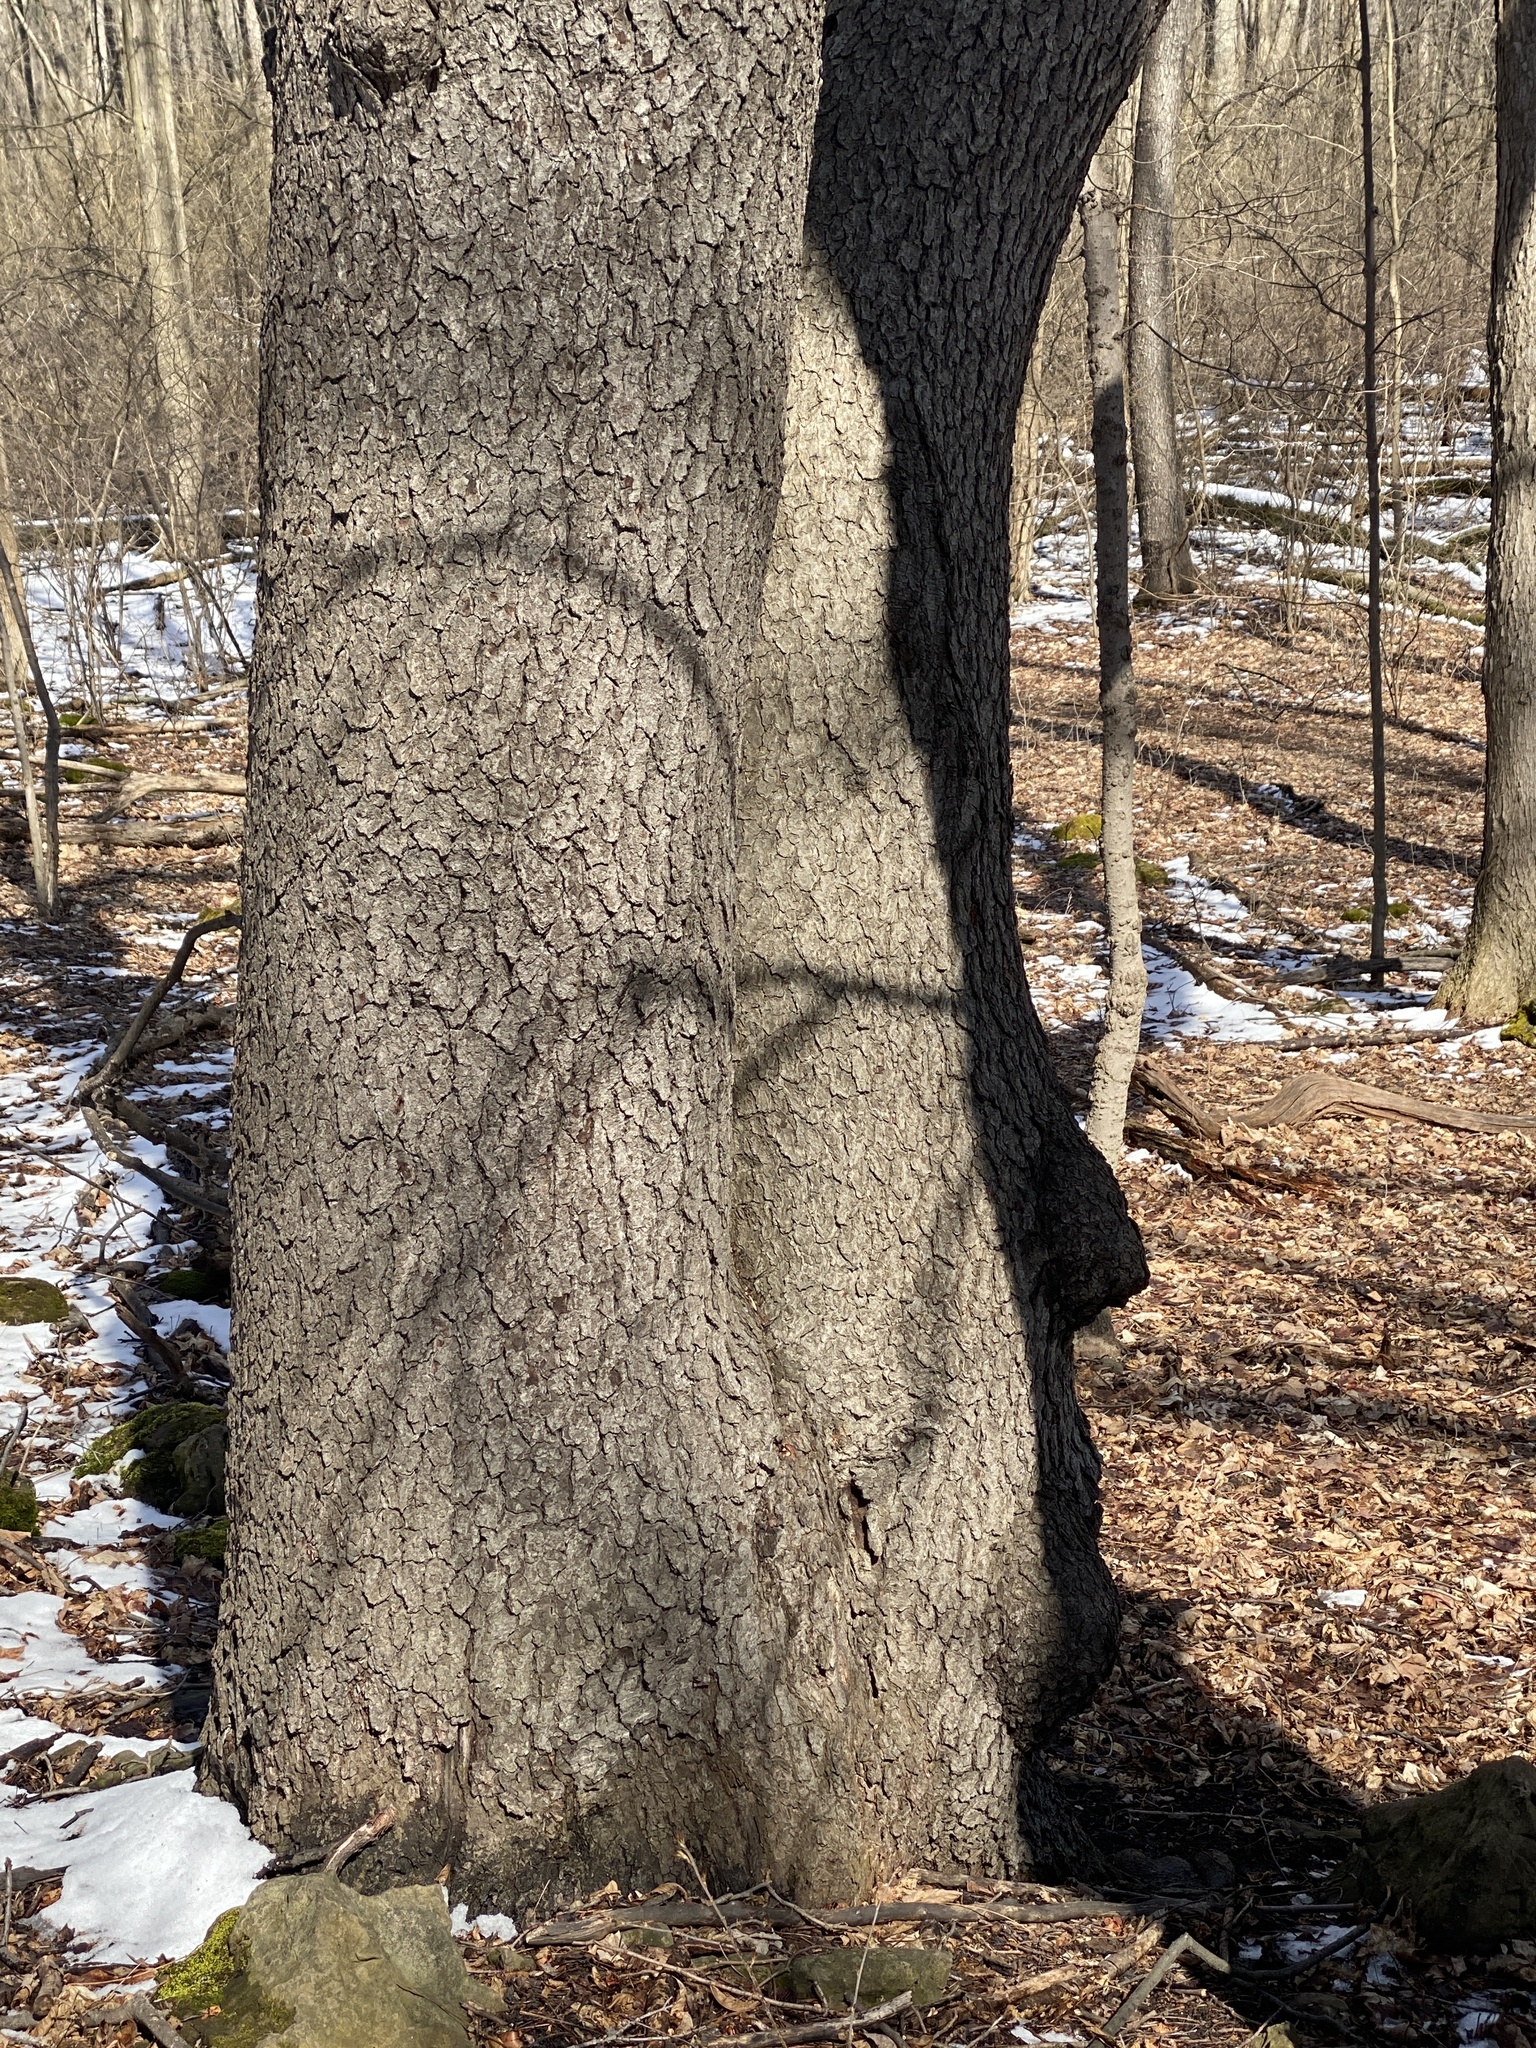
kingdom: Plantae
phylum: Tracheophyta
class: Magnoliopsida
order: Rosales
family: Rosaceae
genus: Prunus
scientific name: Prunus serotina
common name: Black cherry
